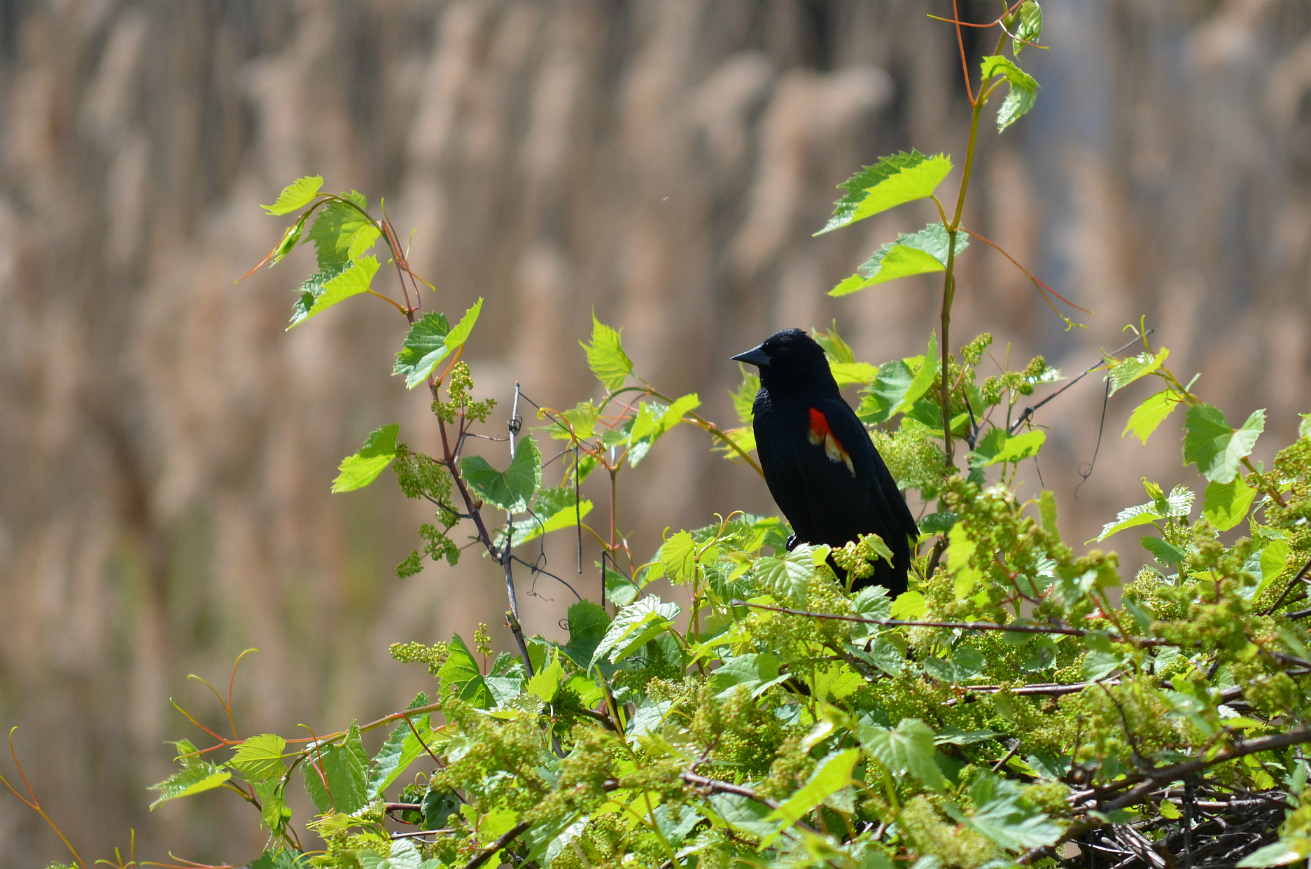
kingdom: Animalia
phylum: Chordata
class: Aves
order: Passeriformes
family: Icteridae
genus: Agelaius
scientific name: Agelaius phoeniceus
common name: Red-winged blackbird
